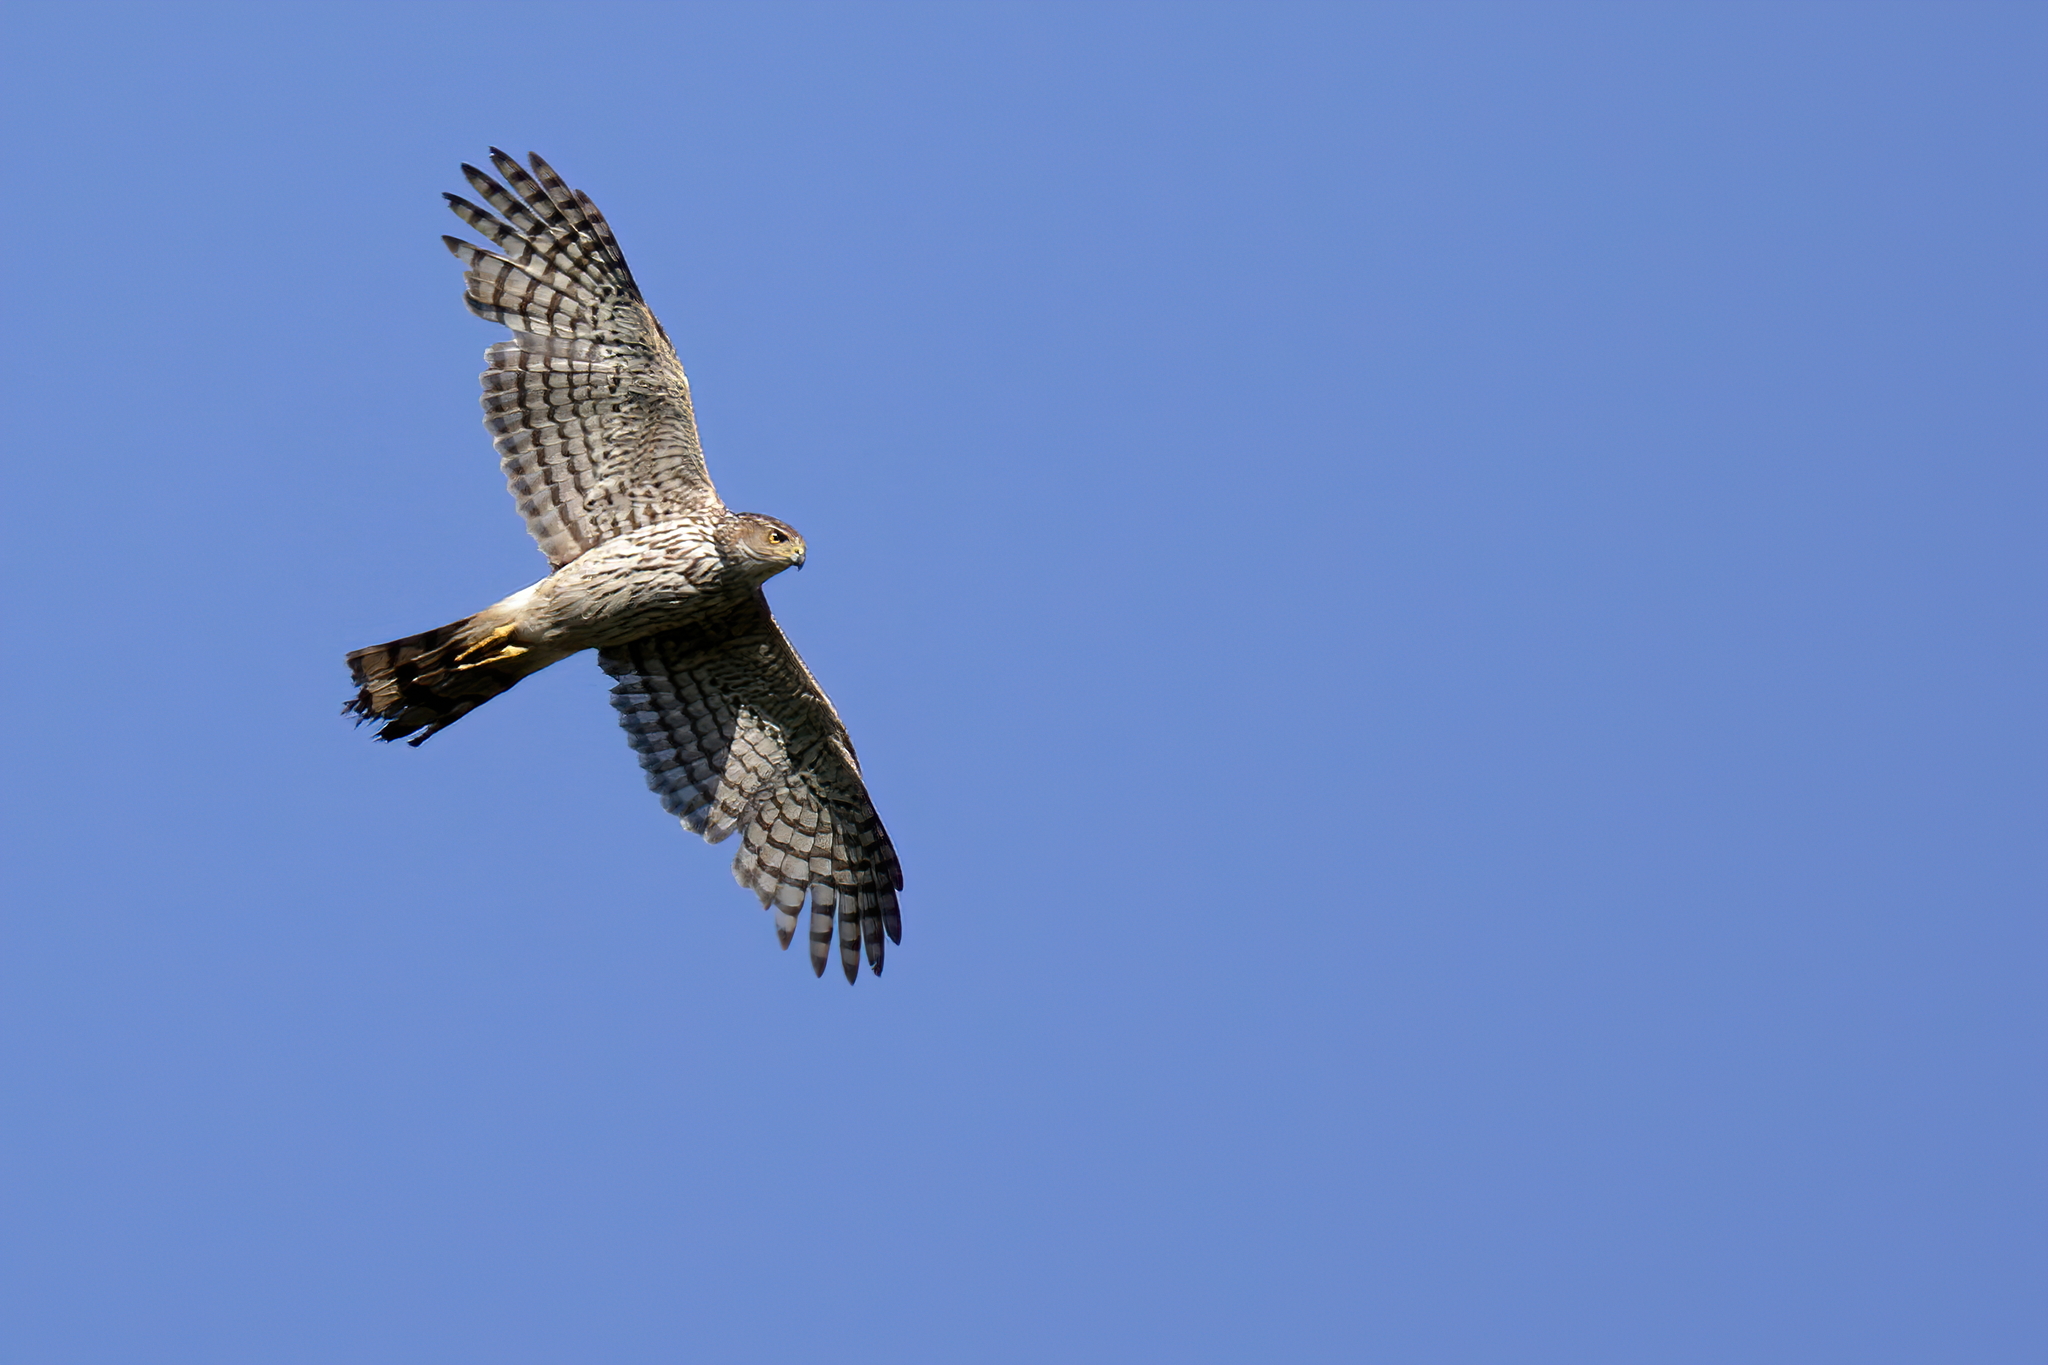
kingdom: Animalia
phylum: Chordata
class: Aves
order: Accipitriformes
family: Accipitridae
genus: Accipiter
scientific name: Accipiter cooperii
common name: Cooper's hawk
